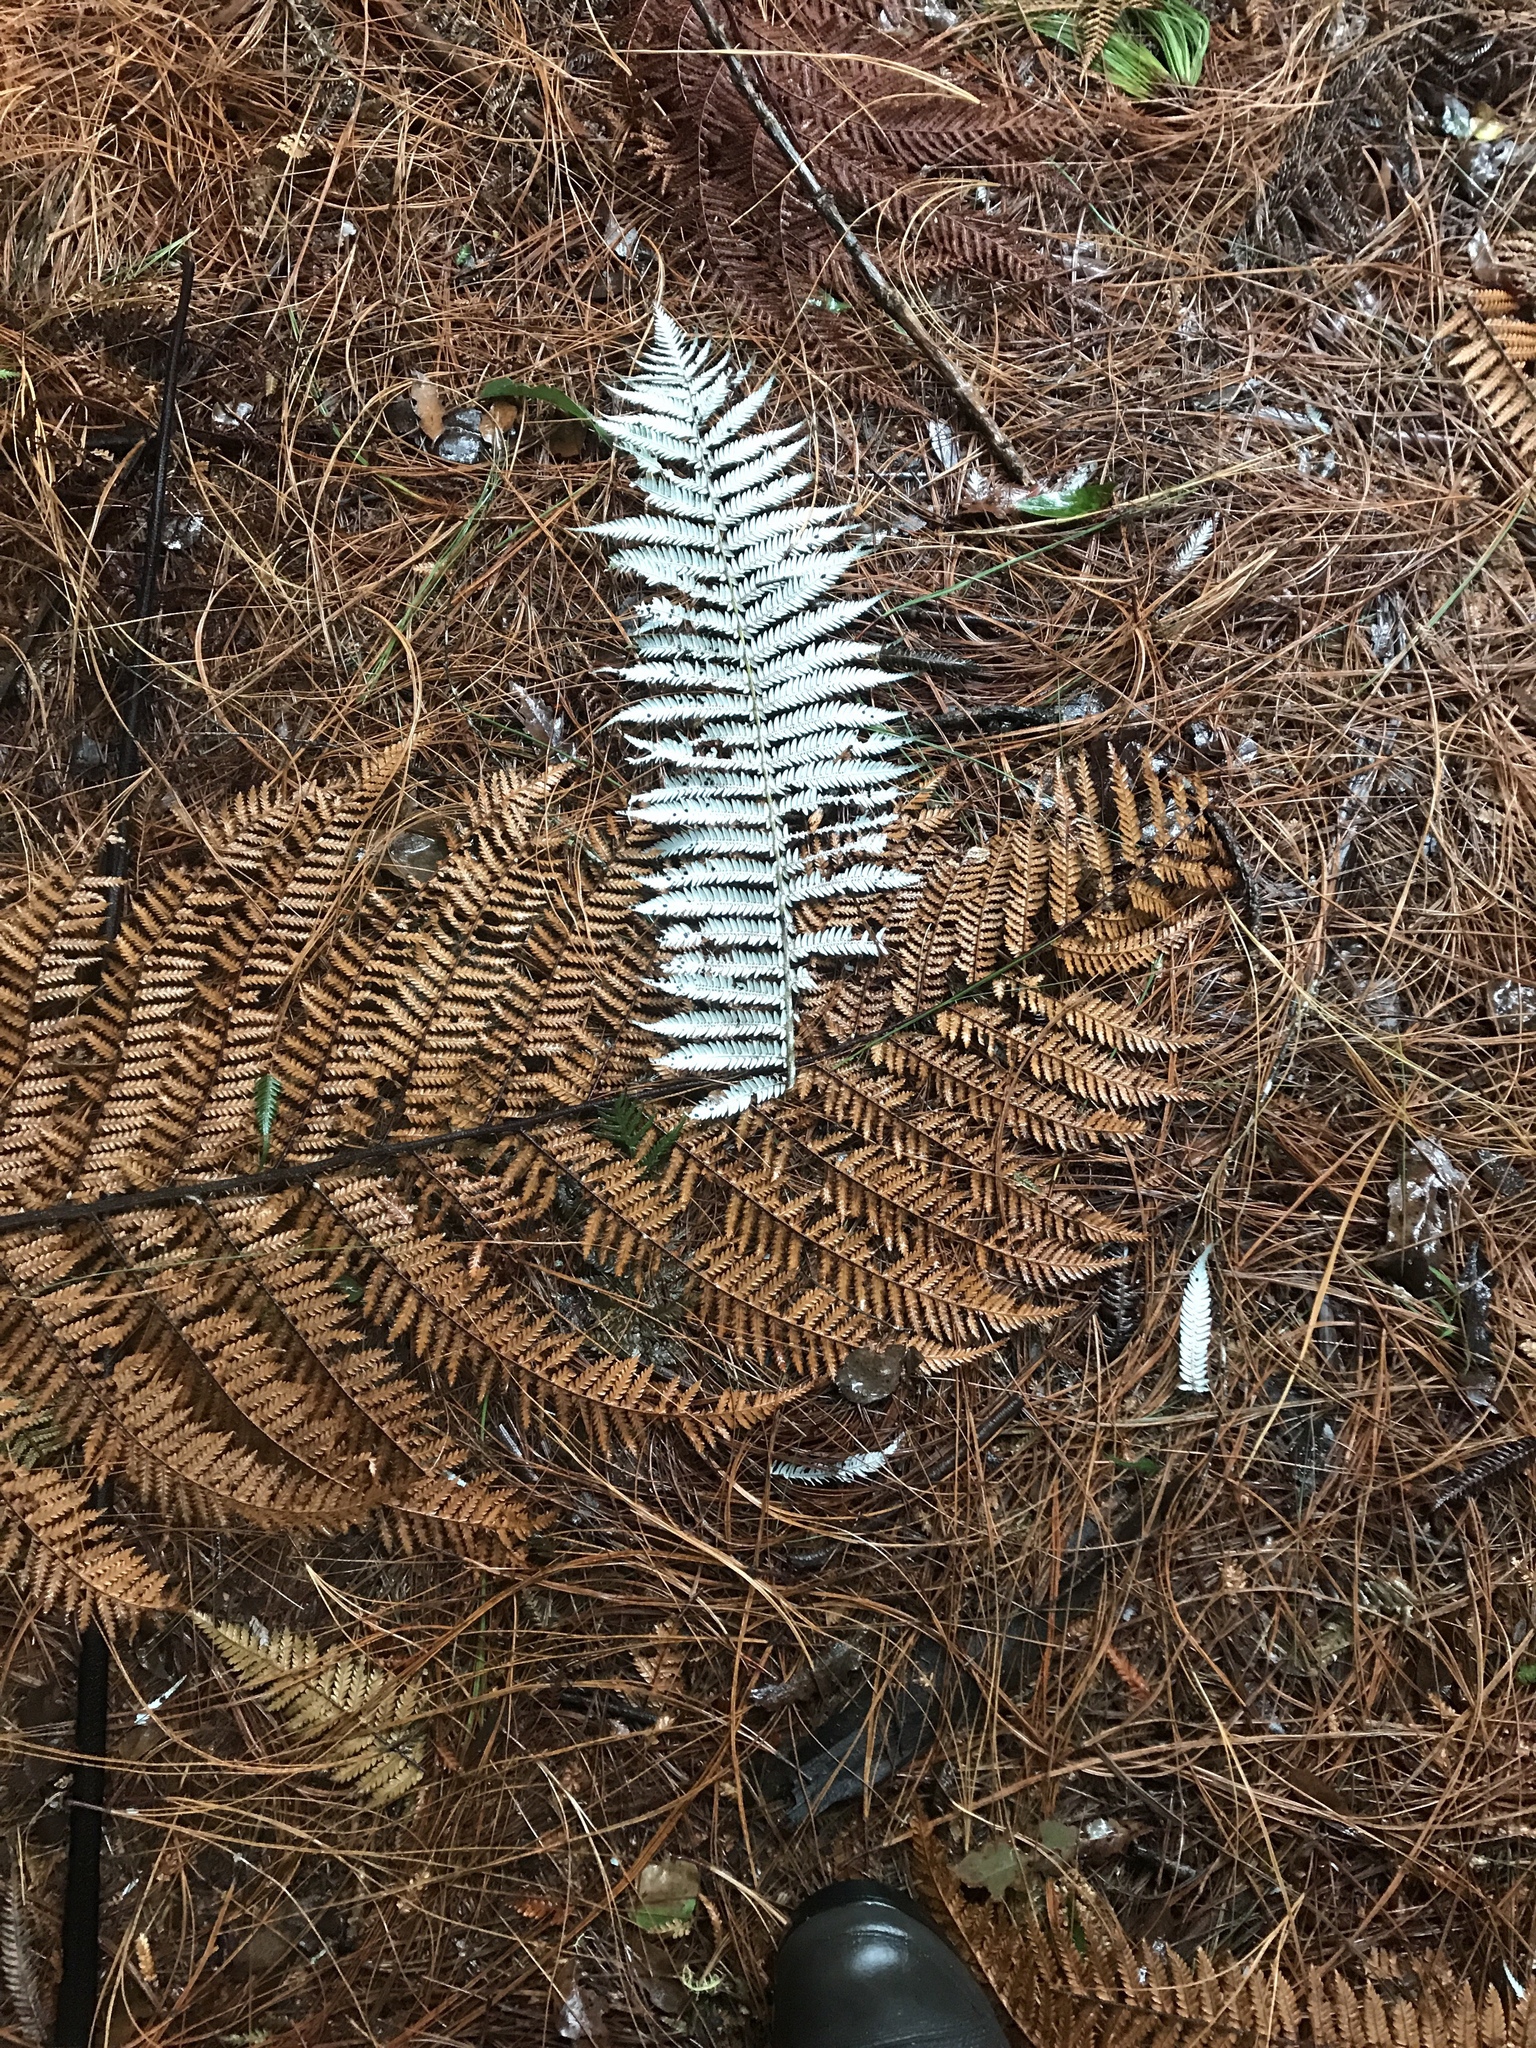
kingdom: Plantae
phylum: Tracheophyta
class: Polypodiopsida
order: Cyatheales
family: Cyatheaceae
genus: Alsophila
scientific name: Alsophila dealbata
